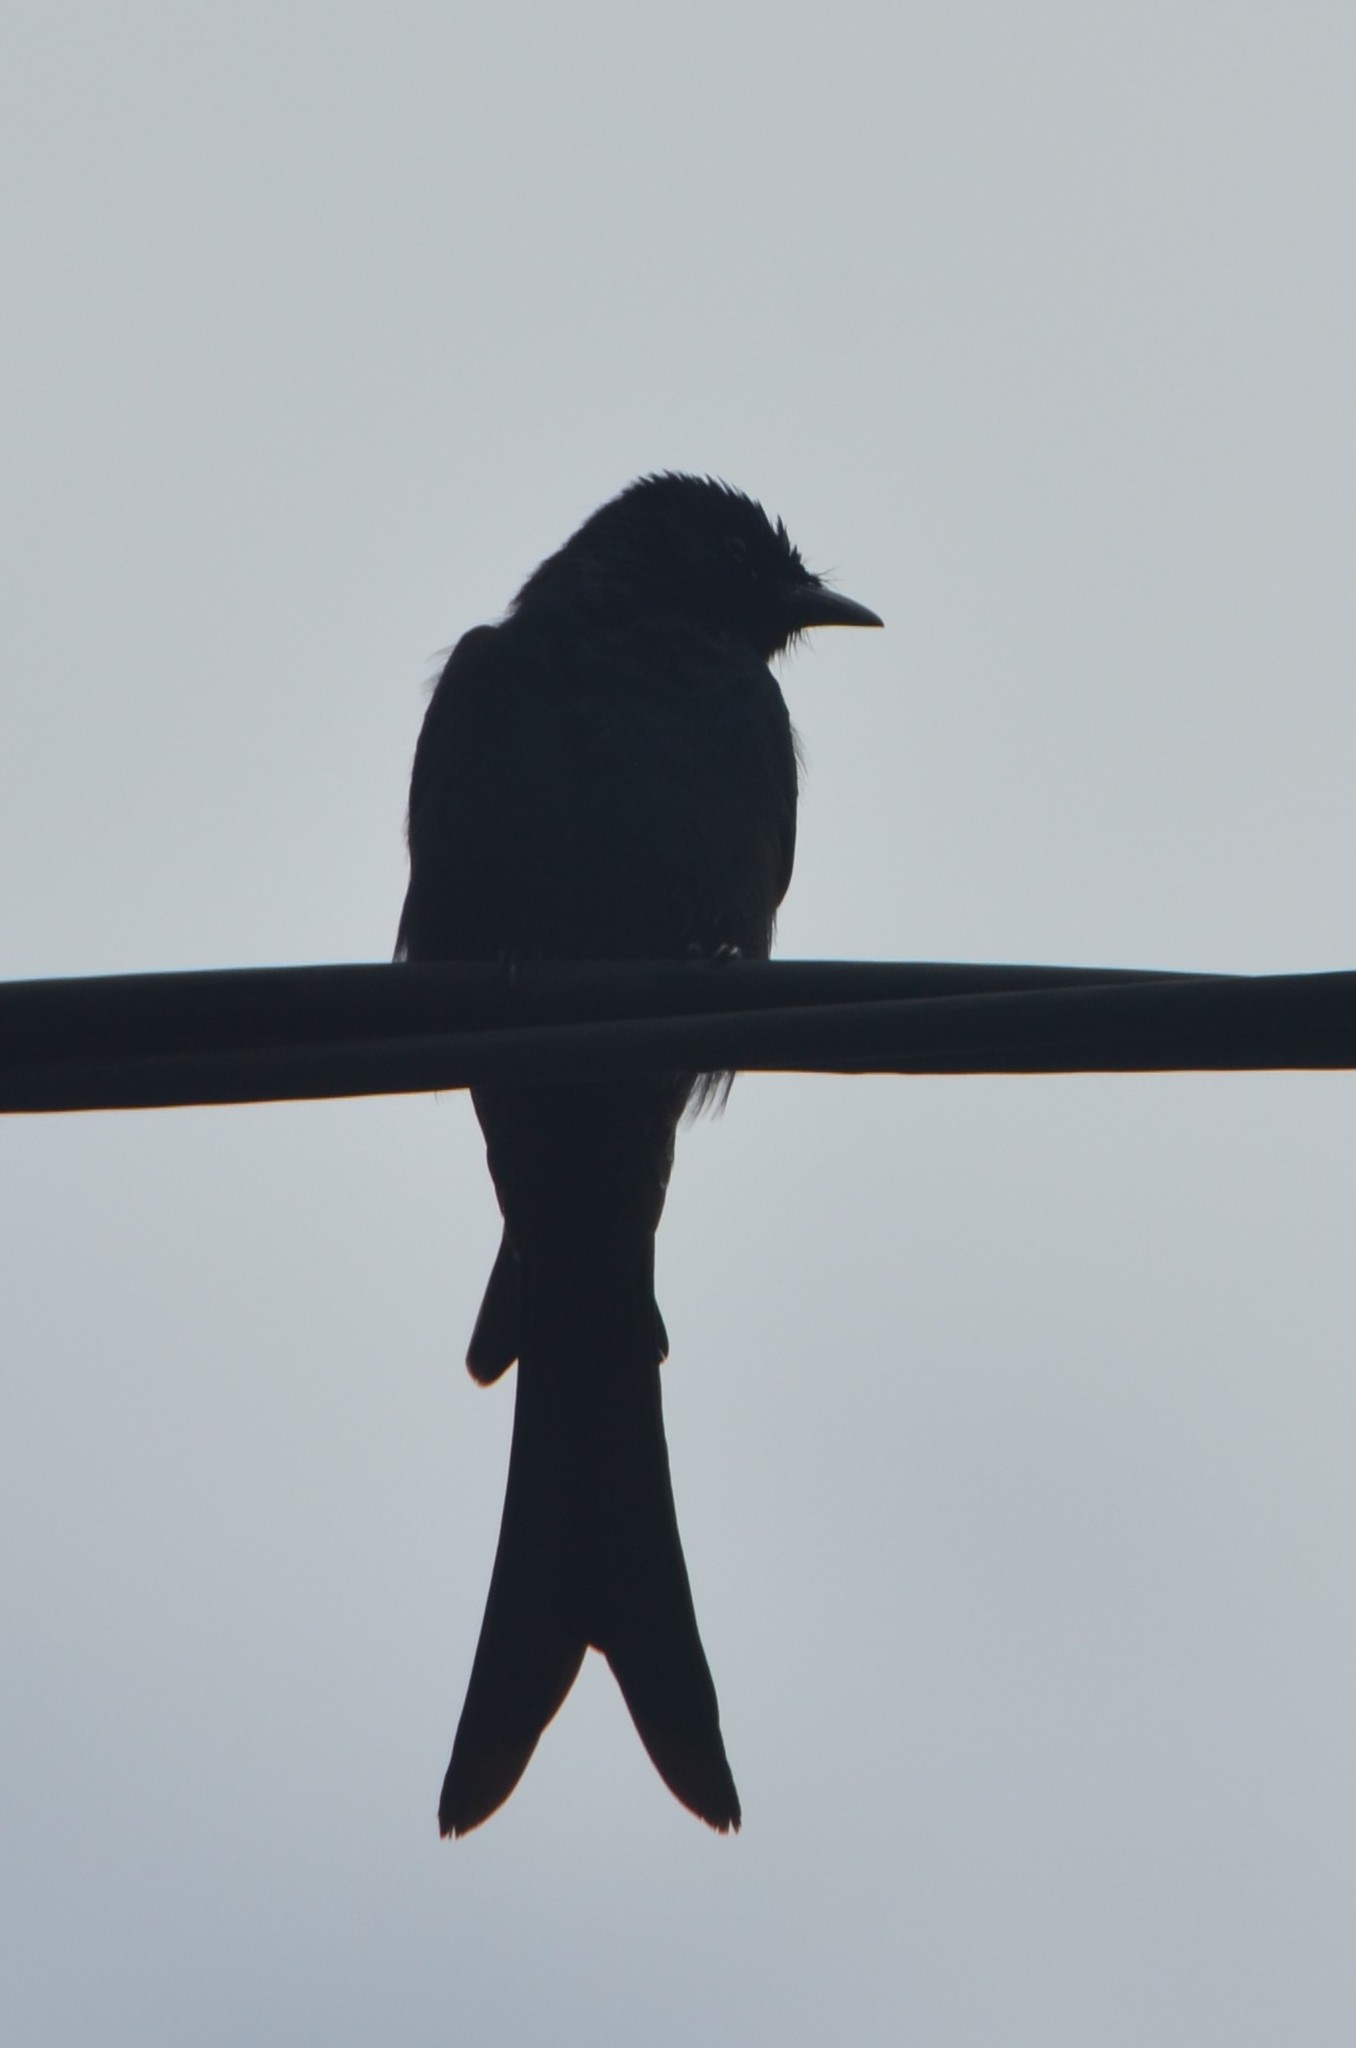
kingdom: Animalia
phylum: Chordata
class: Aves
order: Passeriformes
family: Dicruridae
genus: Dicrurus
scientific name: Dicrurus macrocercus
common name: Black drongo
